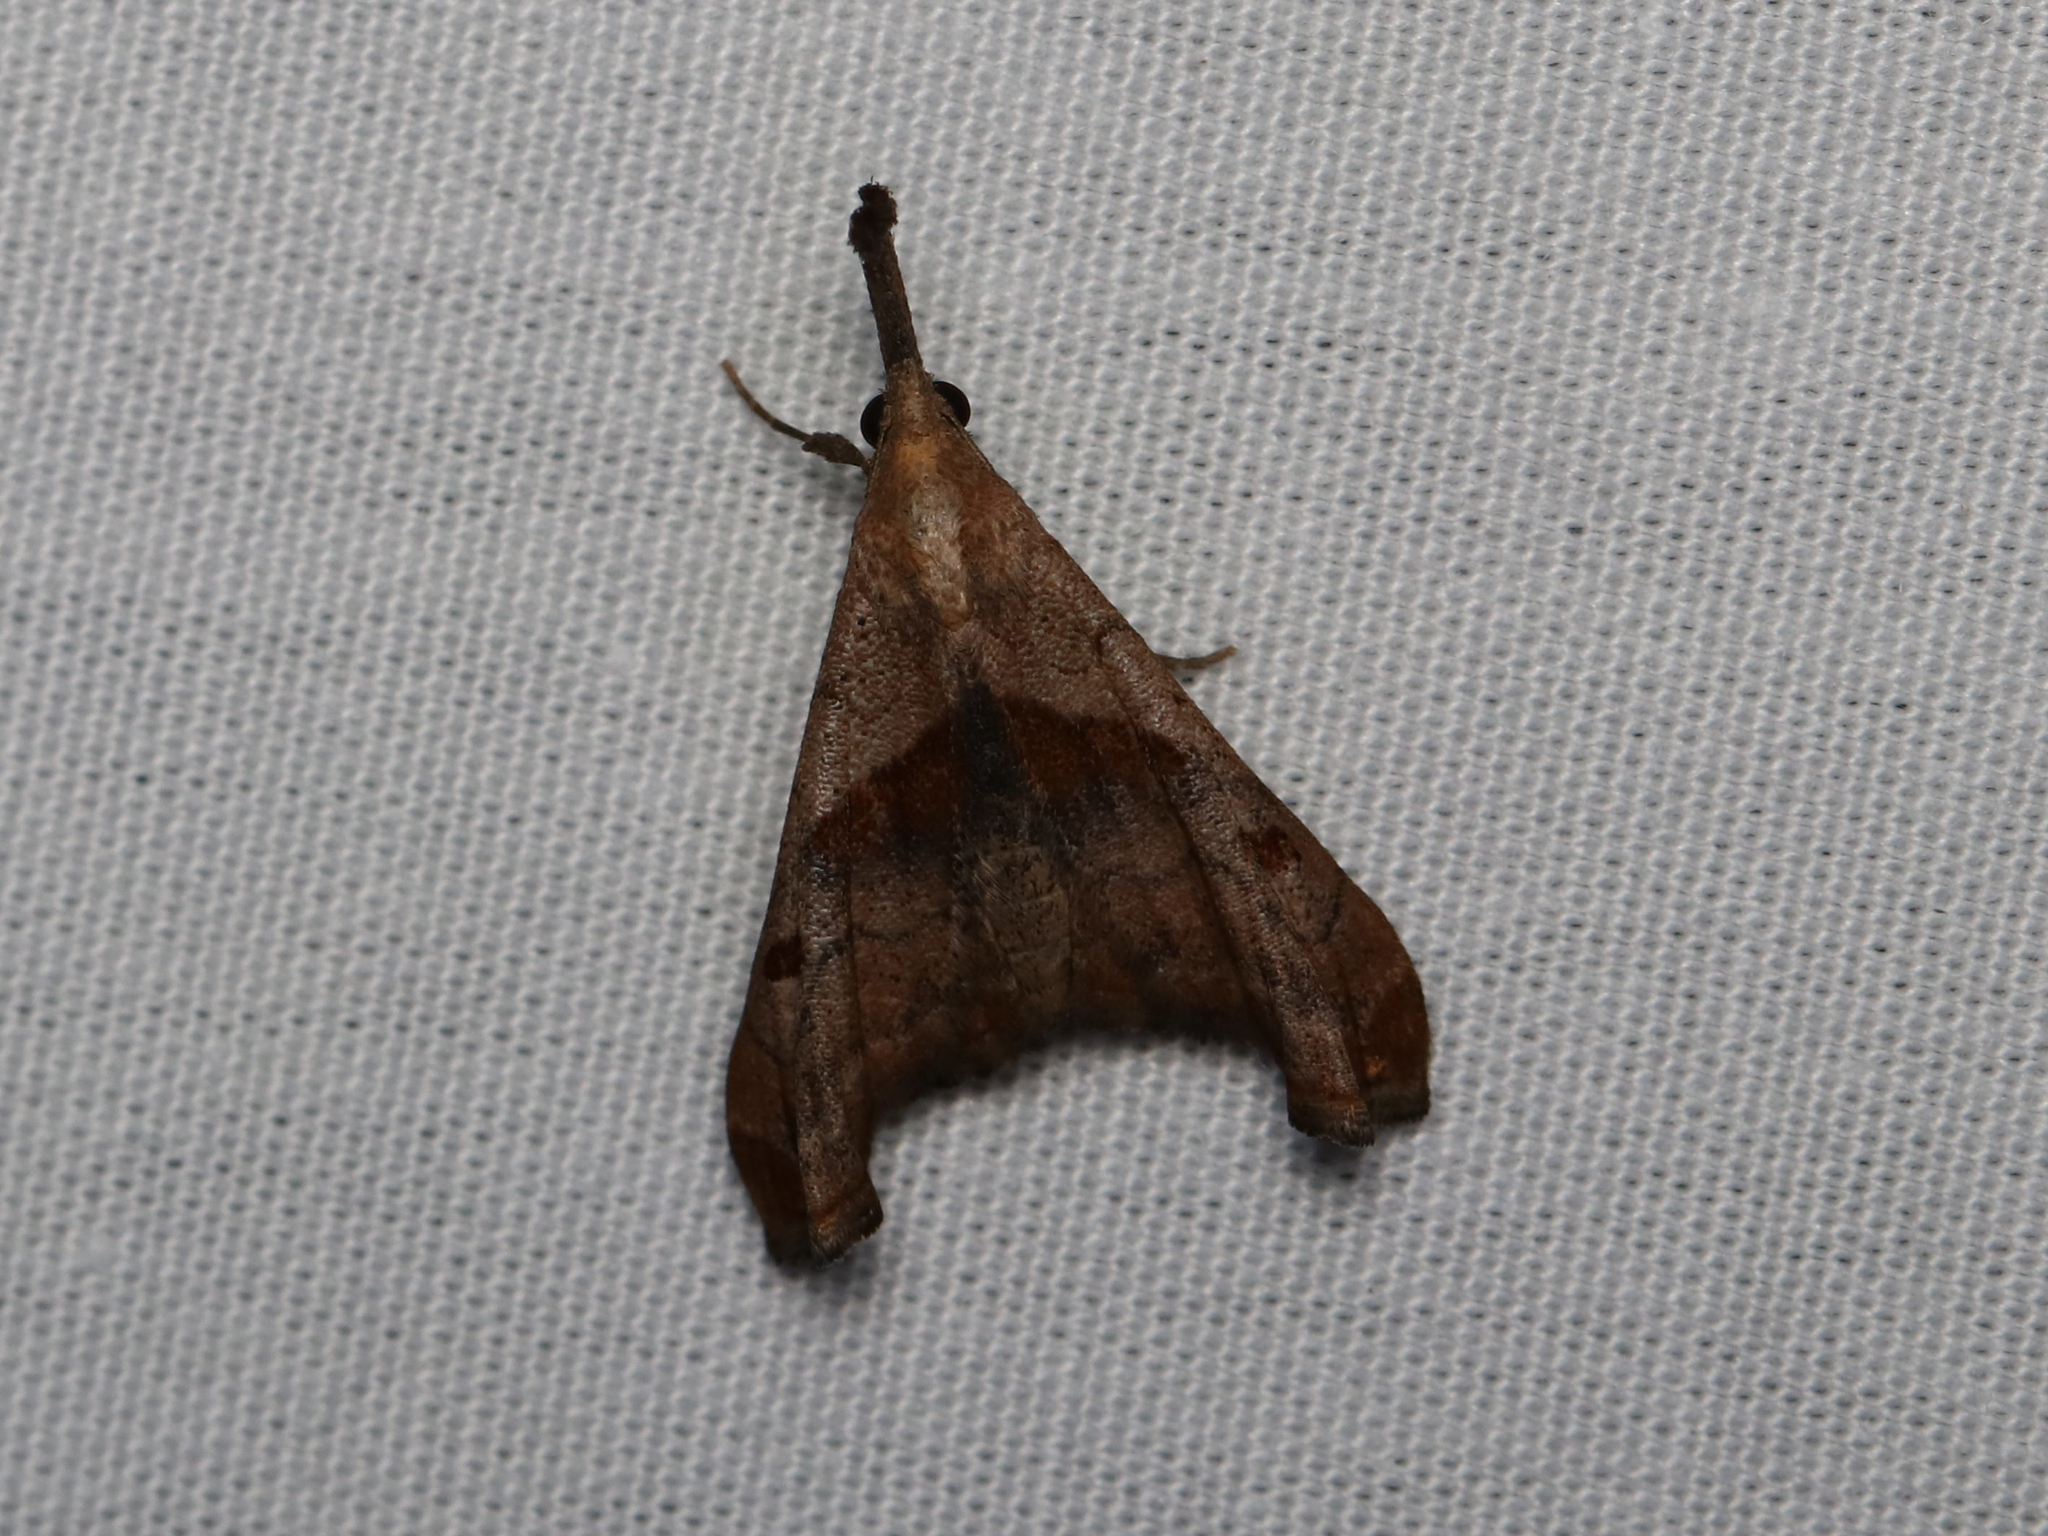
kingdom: Animalia
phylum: Arthropoda
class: Insecta
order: Lepidoptera
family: Erebidae
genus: Palthis
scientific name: Palthis angulalis
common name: Dark-spotted palthis moth
